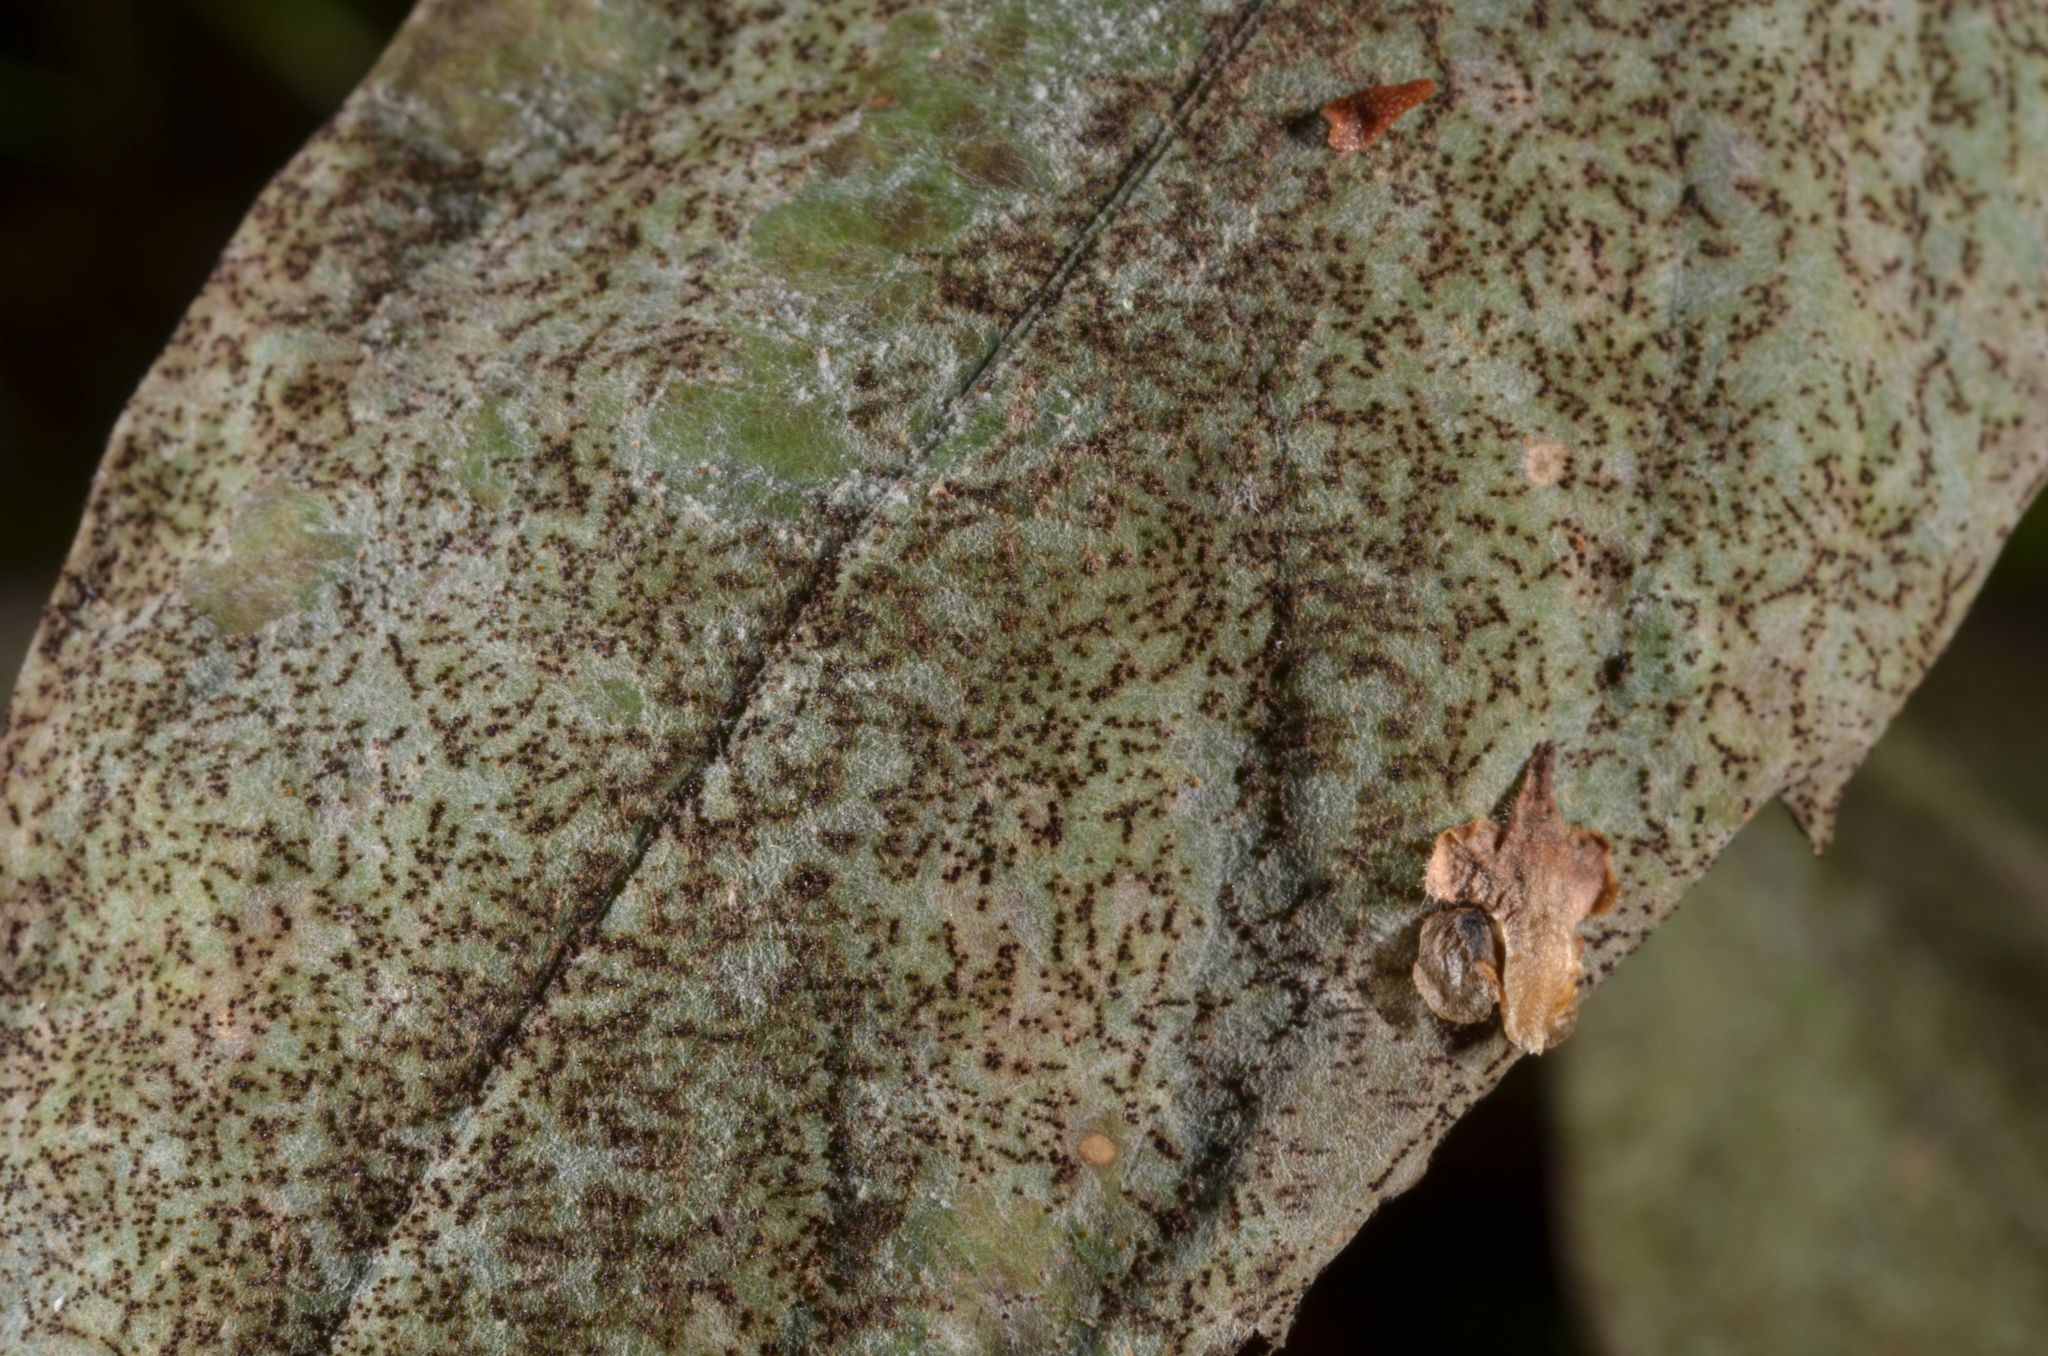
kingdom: Fungi
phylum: Ascomycota
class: Leotiomycetes
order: Helotiales
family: Erysiphaceae
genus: Podosphaera
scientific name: Podosphaera balsaminae
